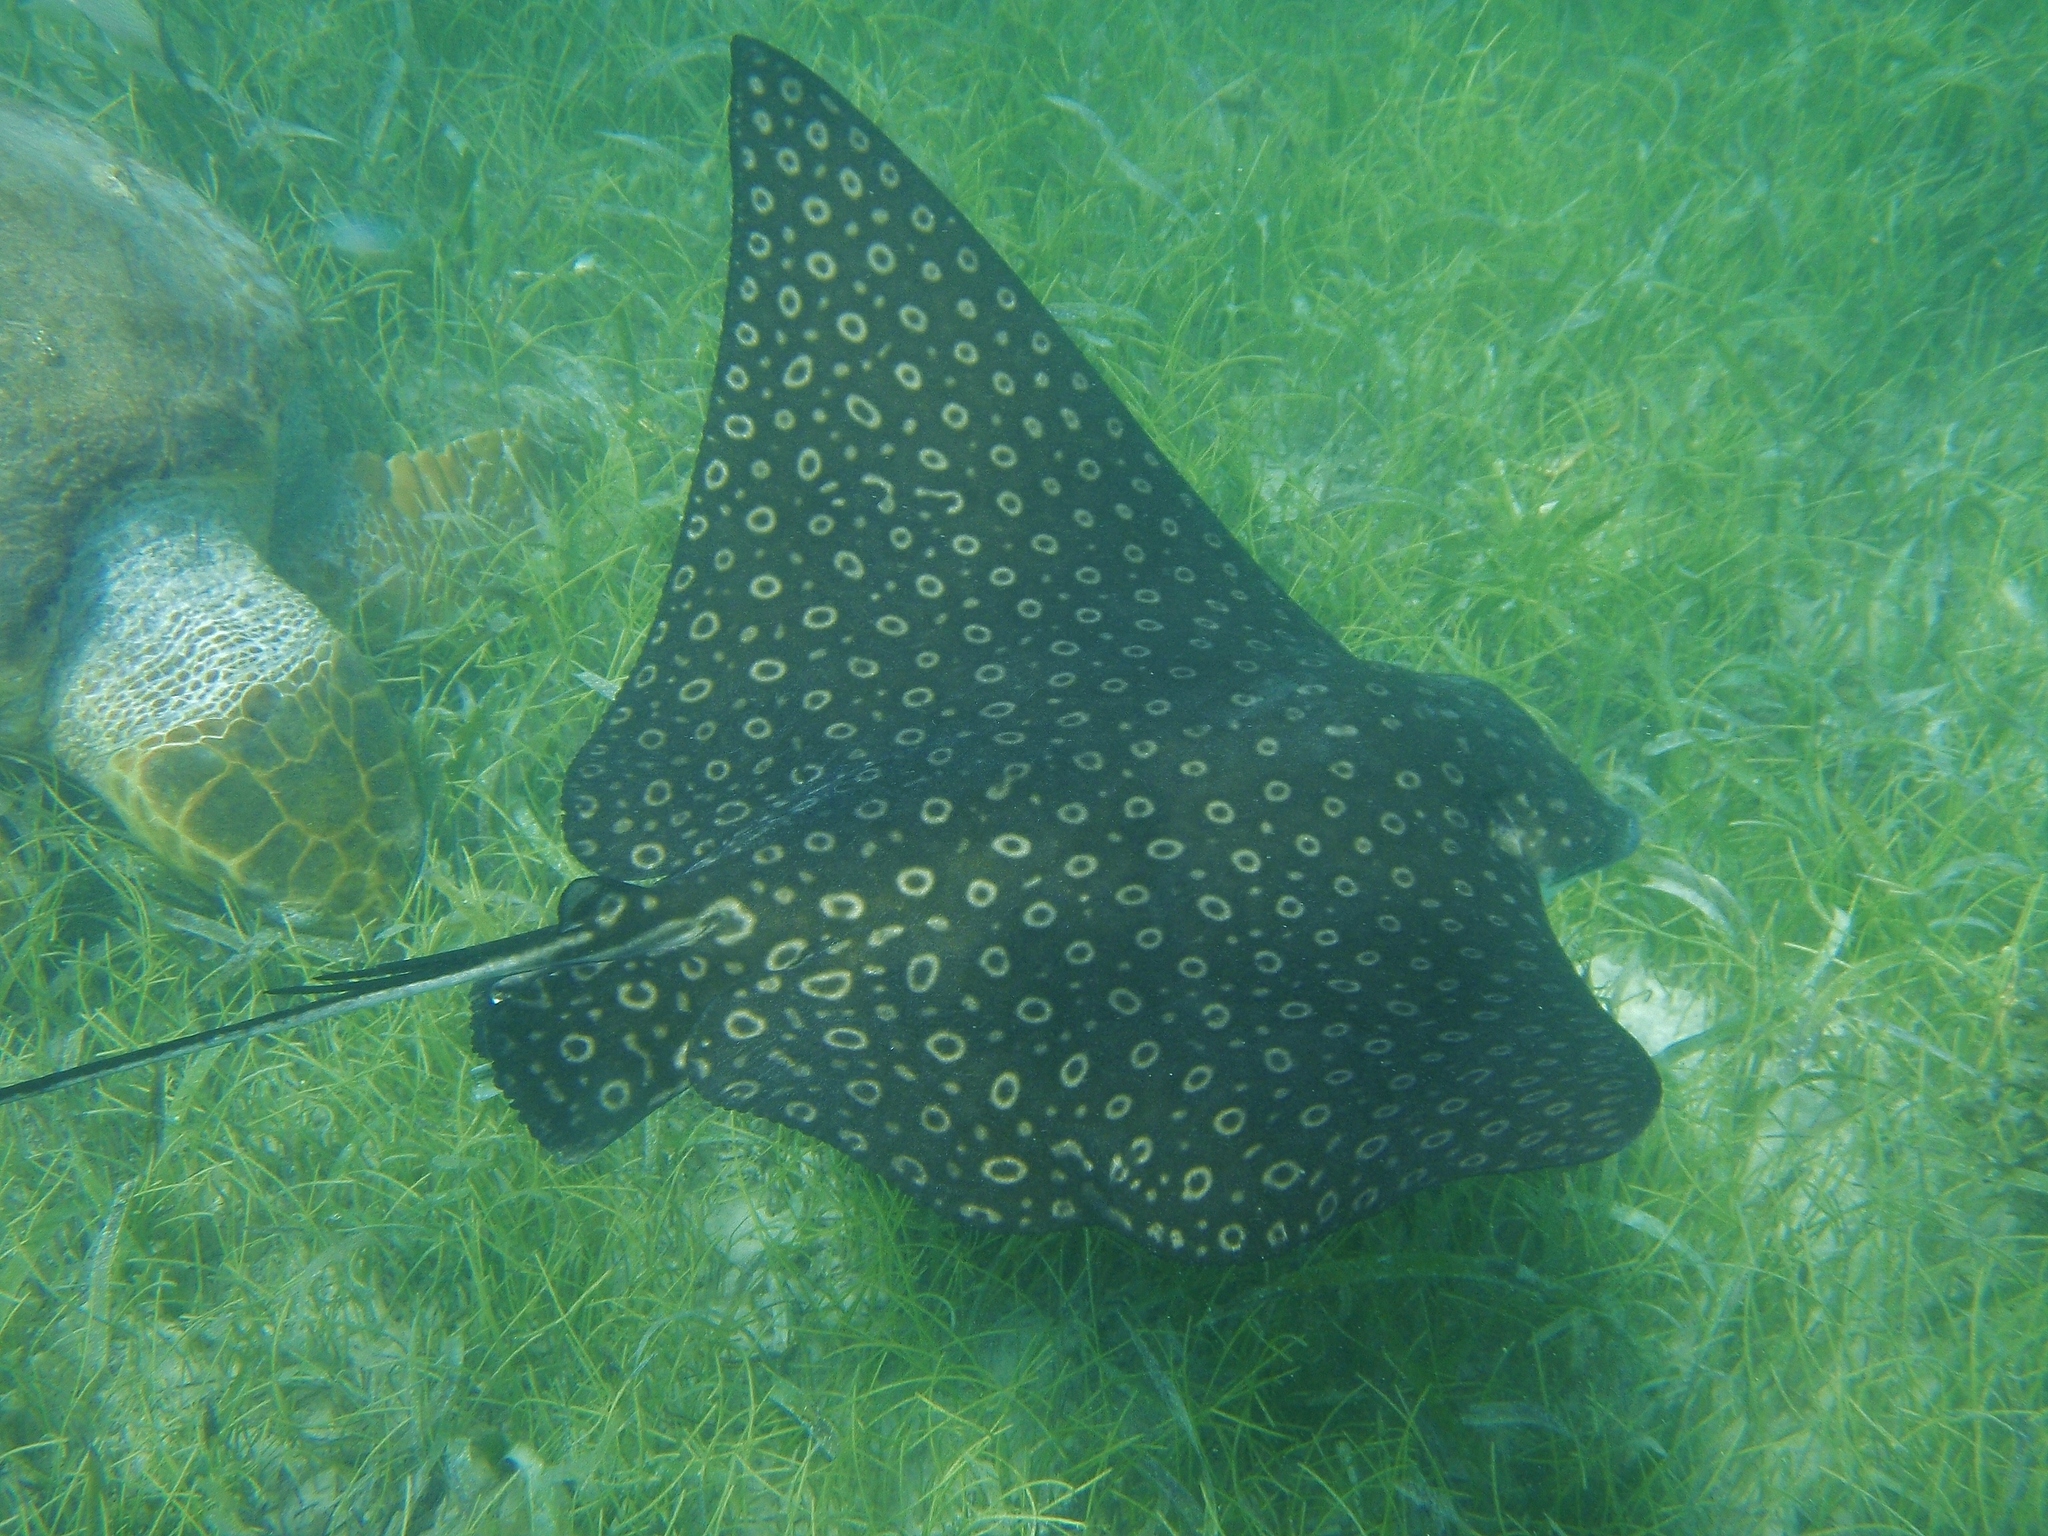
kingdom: Animalia
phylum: Chordata
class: Elasmobranchii
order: Myliobatiformes
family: Myliobatidae
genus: Aetobatus
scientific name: Aetobatus narinari
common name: Spotted eagle ray
